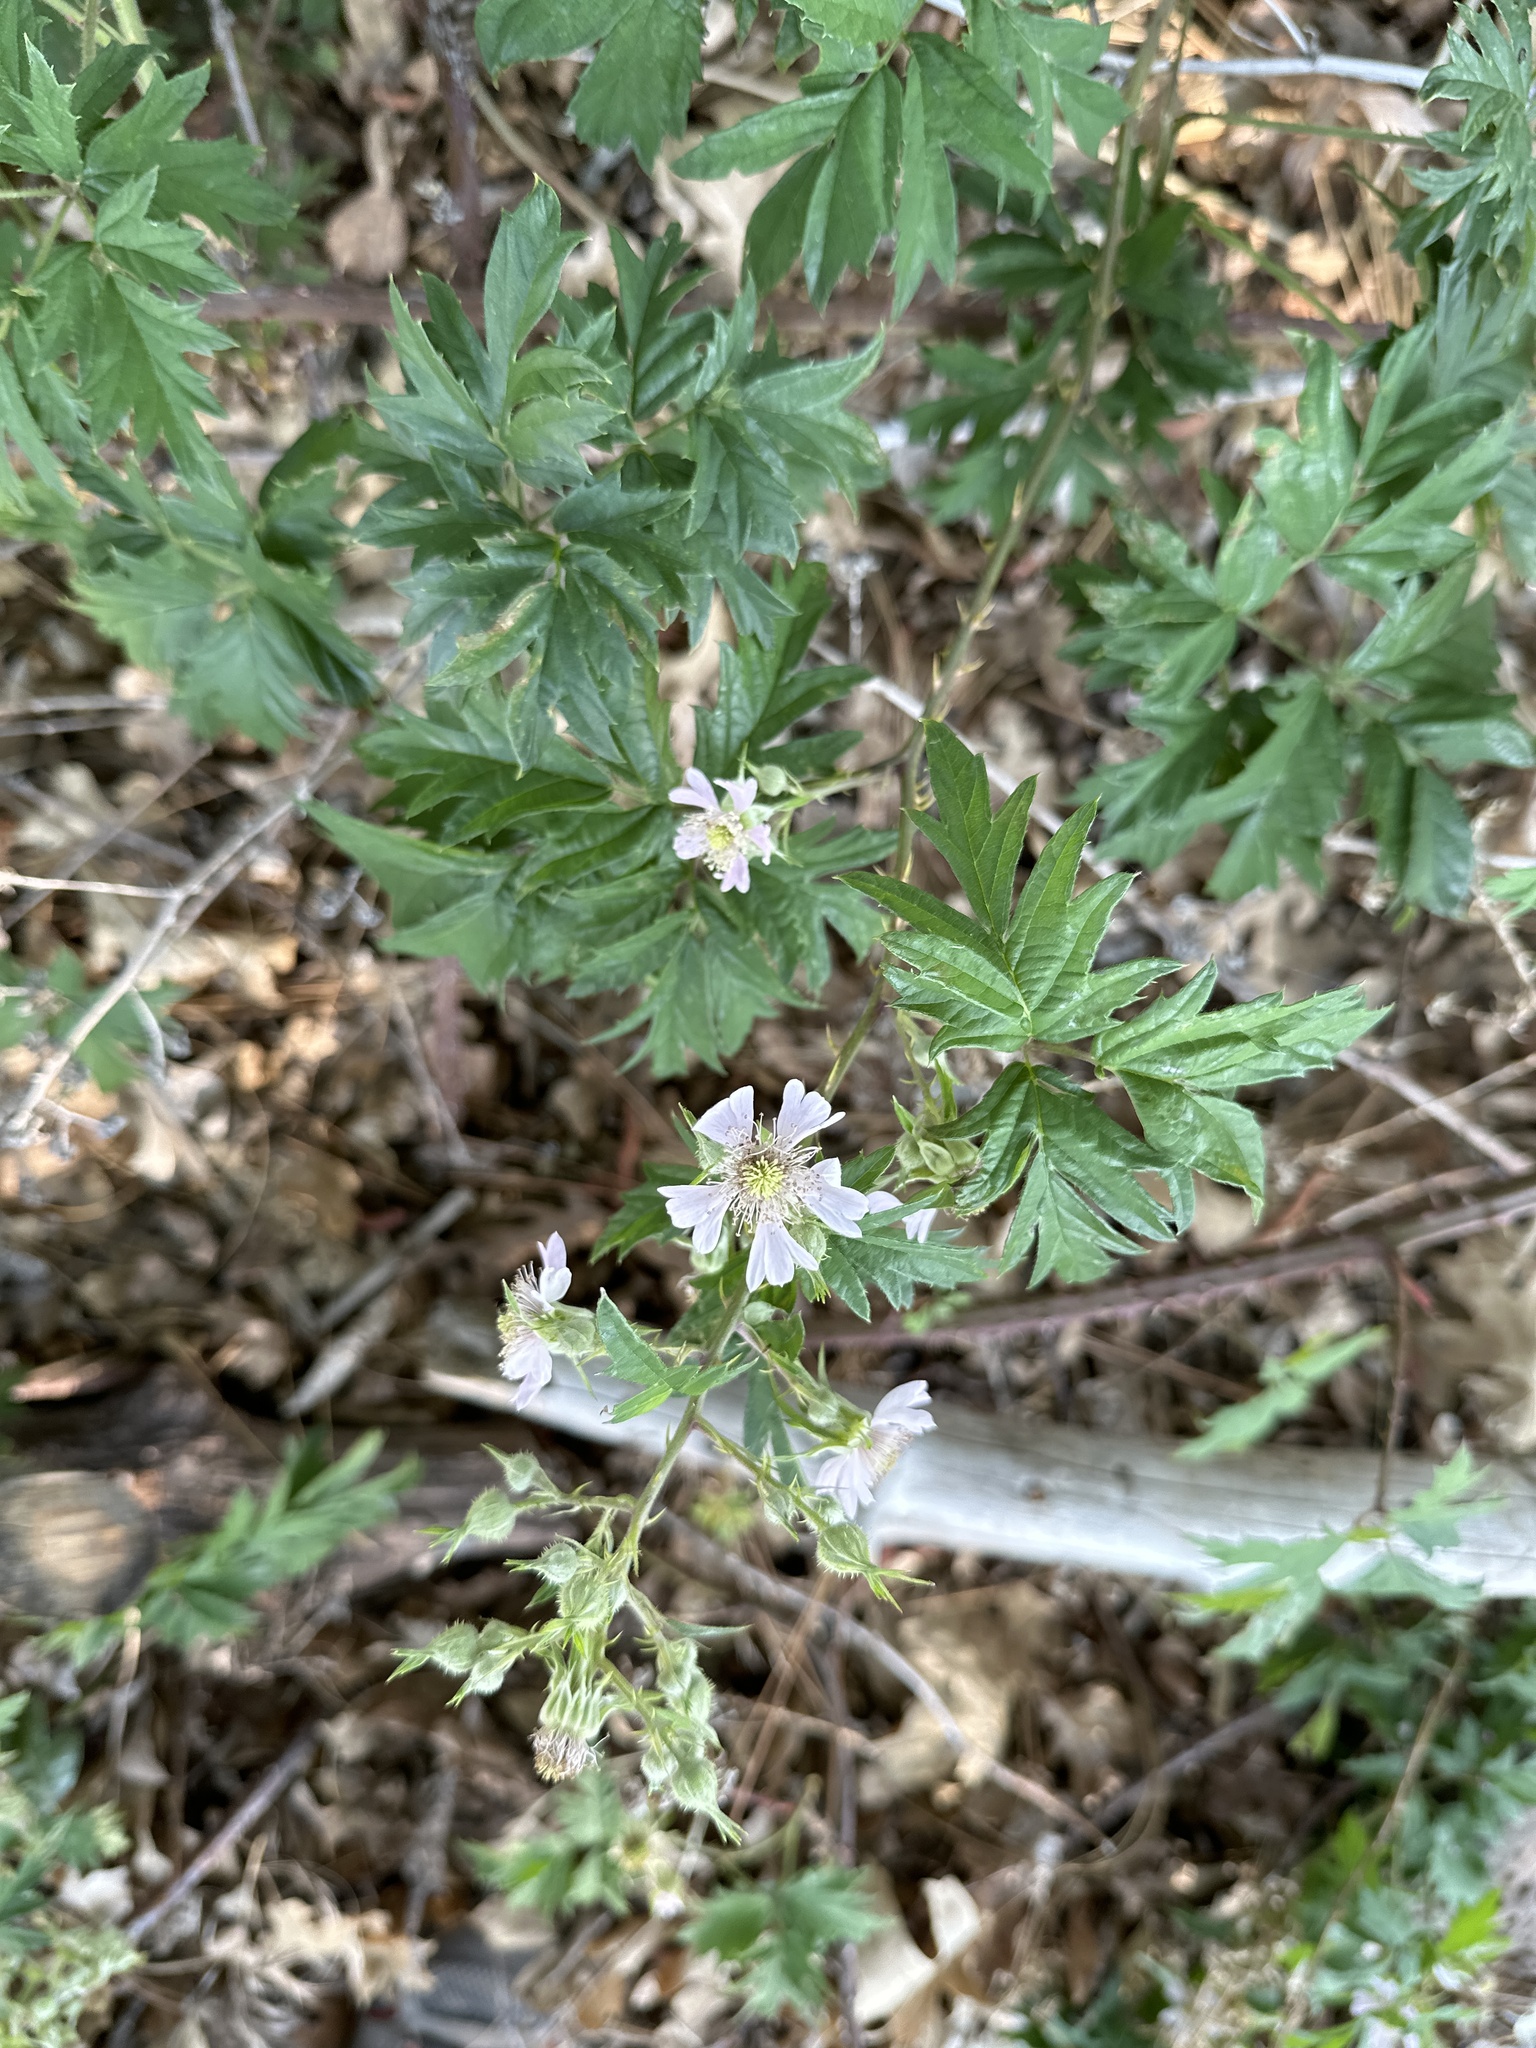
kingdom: Plantae
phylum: Tracheophyta
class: Magnoliopsida
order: Rosales
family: Rosaceae
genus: Rubus
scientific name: Rubus laciniatus
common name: Evergreen blackberry
